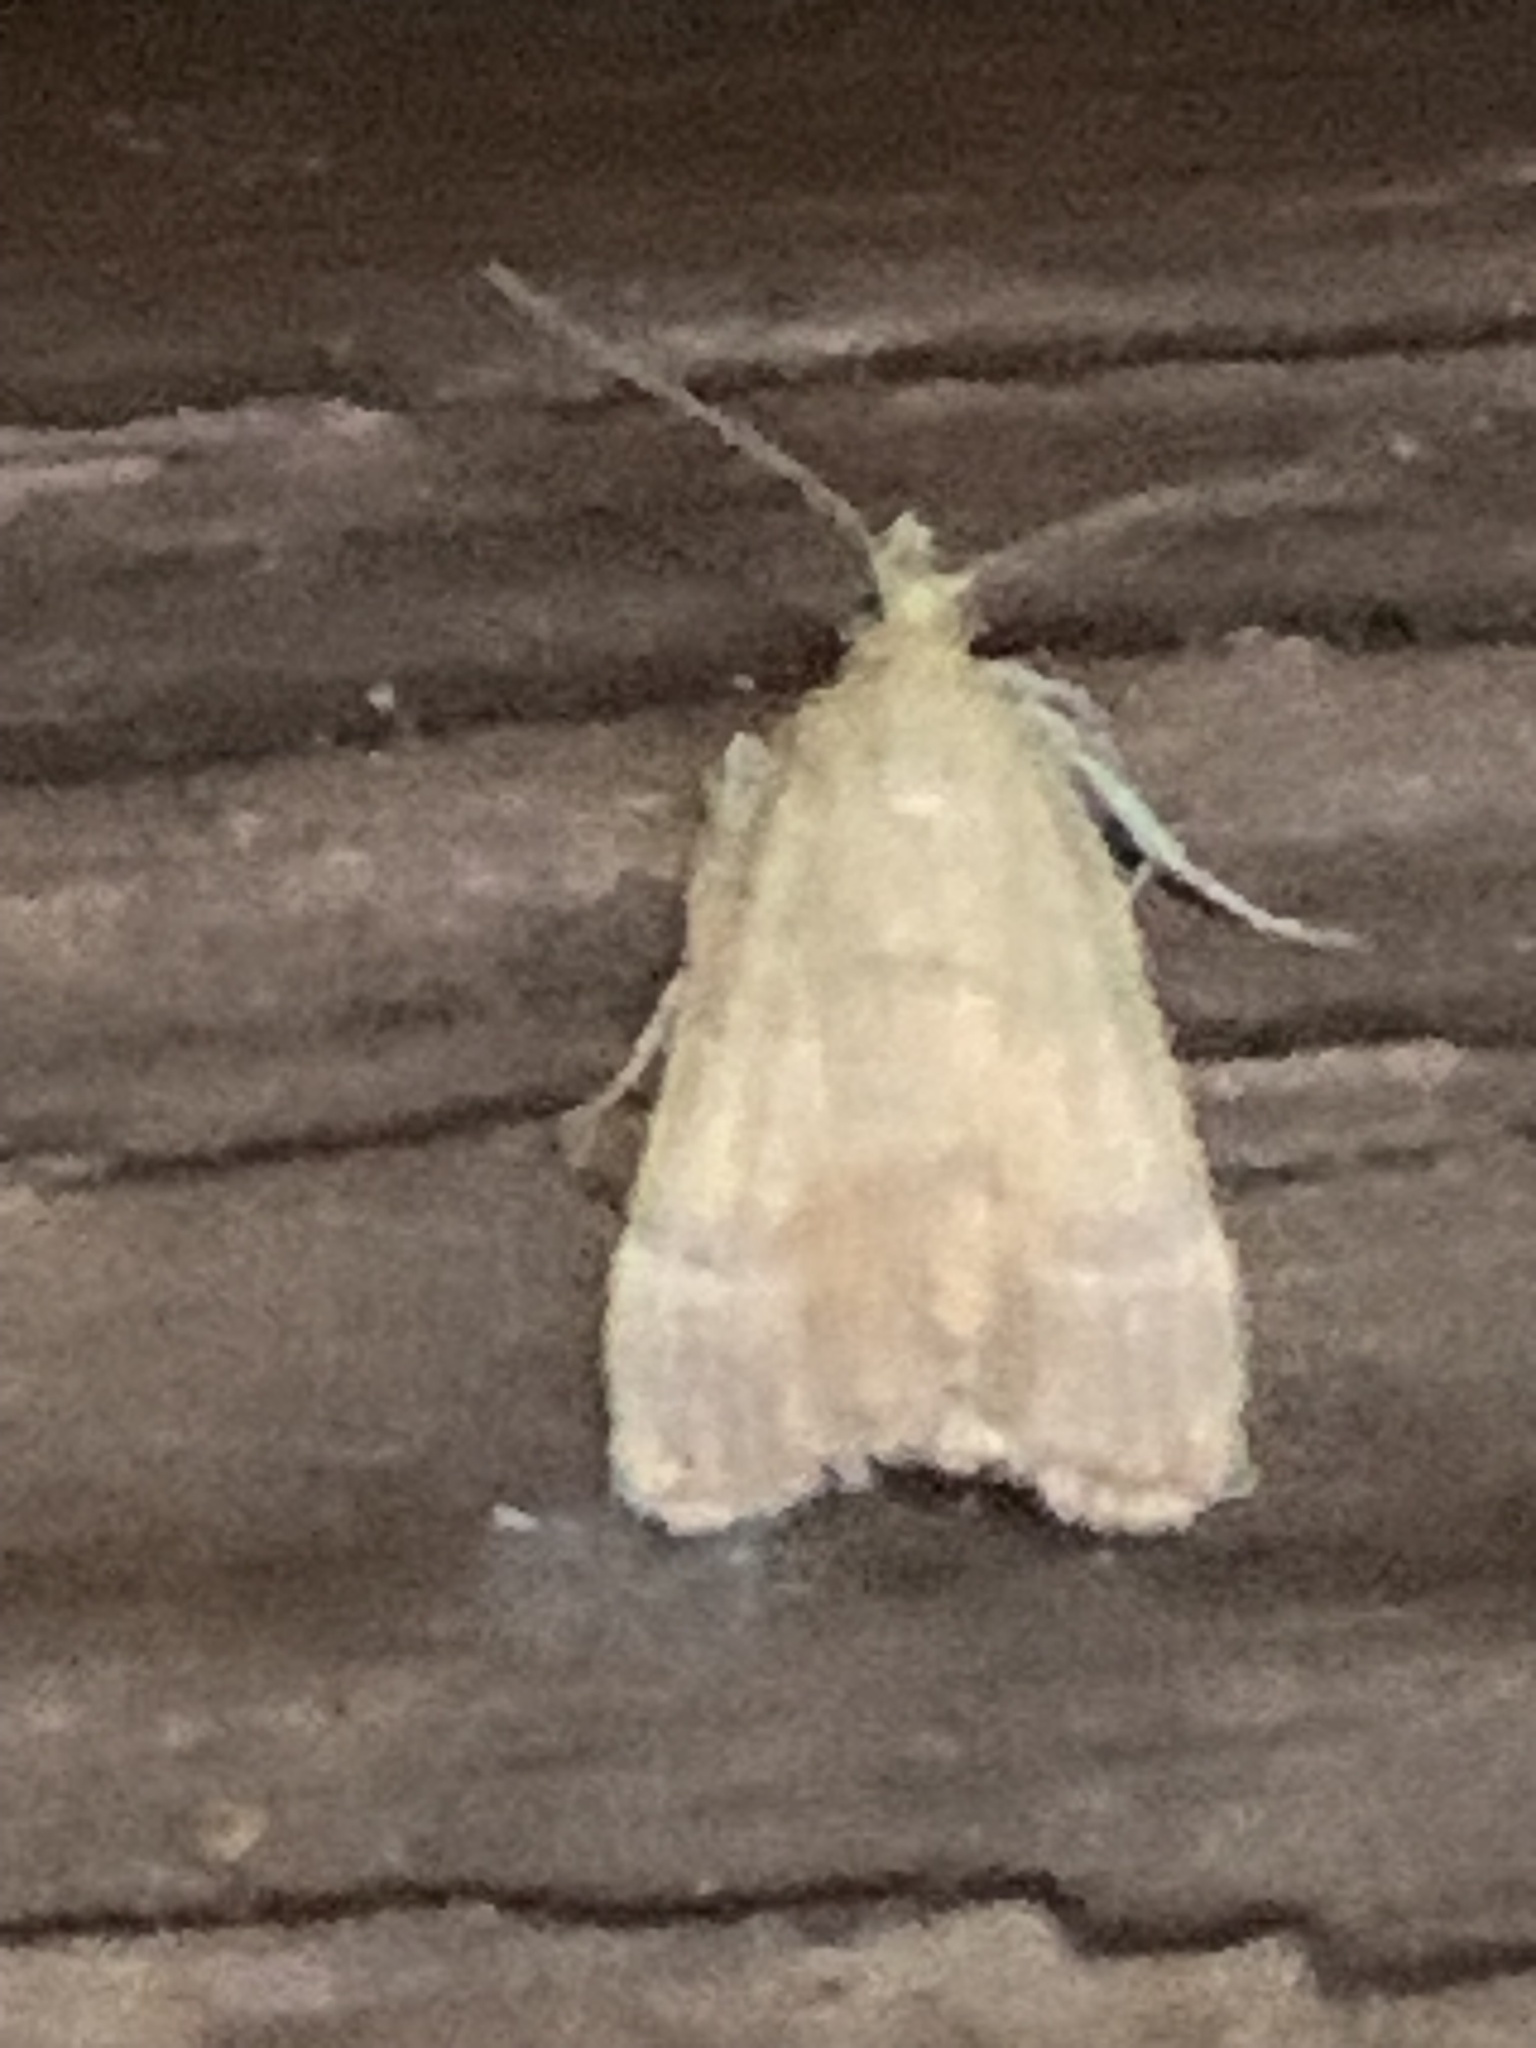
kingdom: Animalia
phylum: Arthropoda
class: Insecta
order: Lepidoptera
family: Pyralidae
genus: Condylolomia
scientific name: Condylolomia participialis
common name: Drab condylolomia moth
